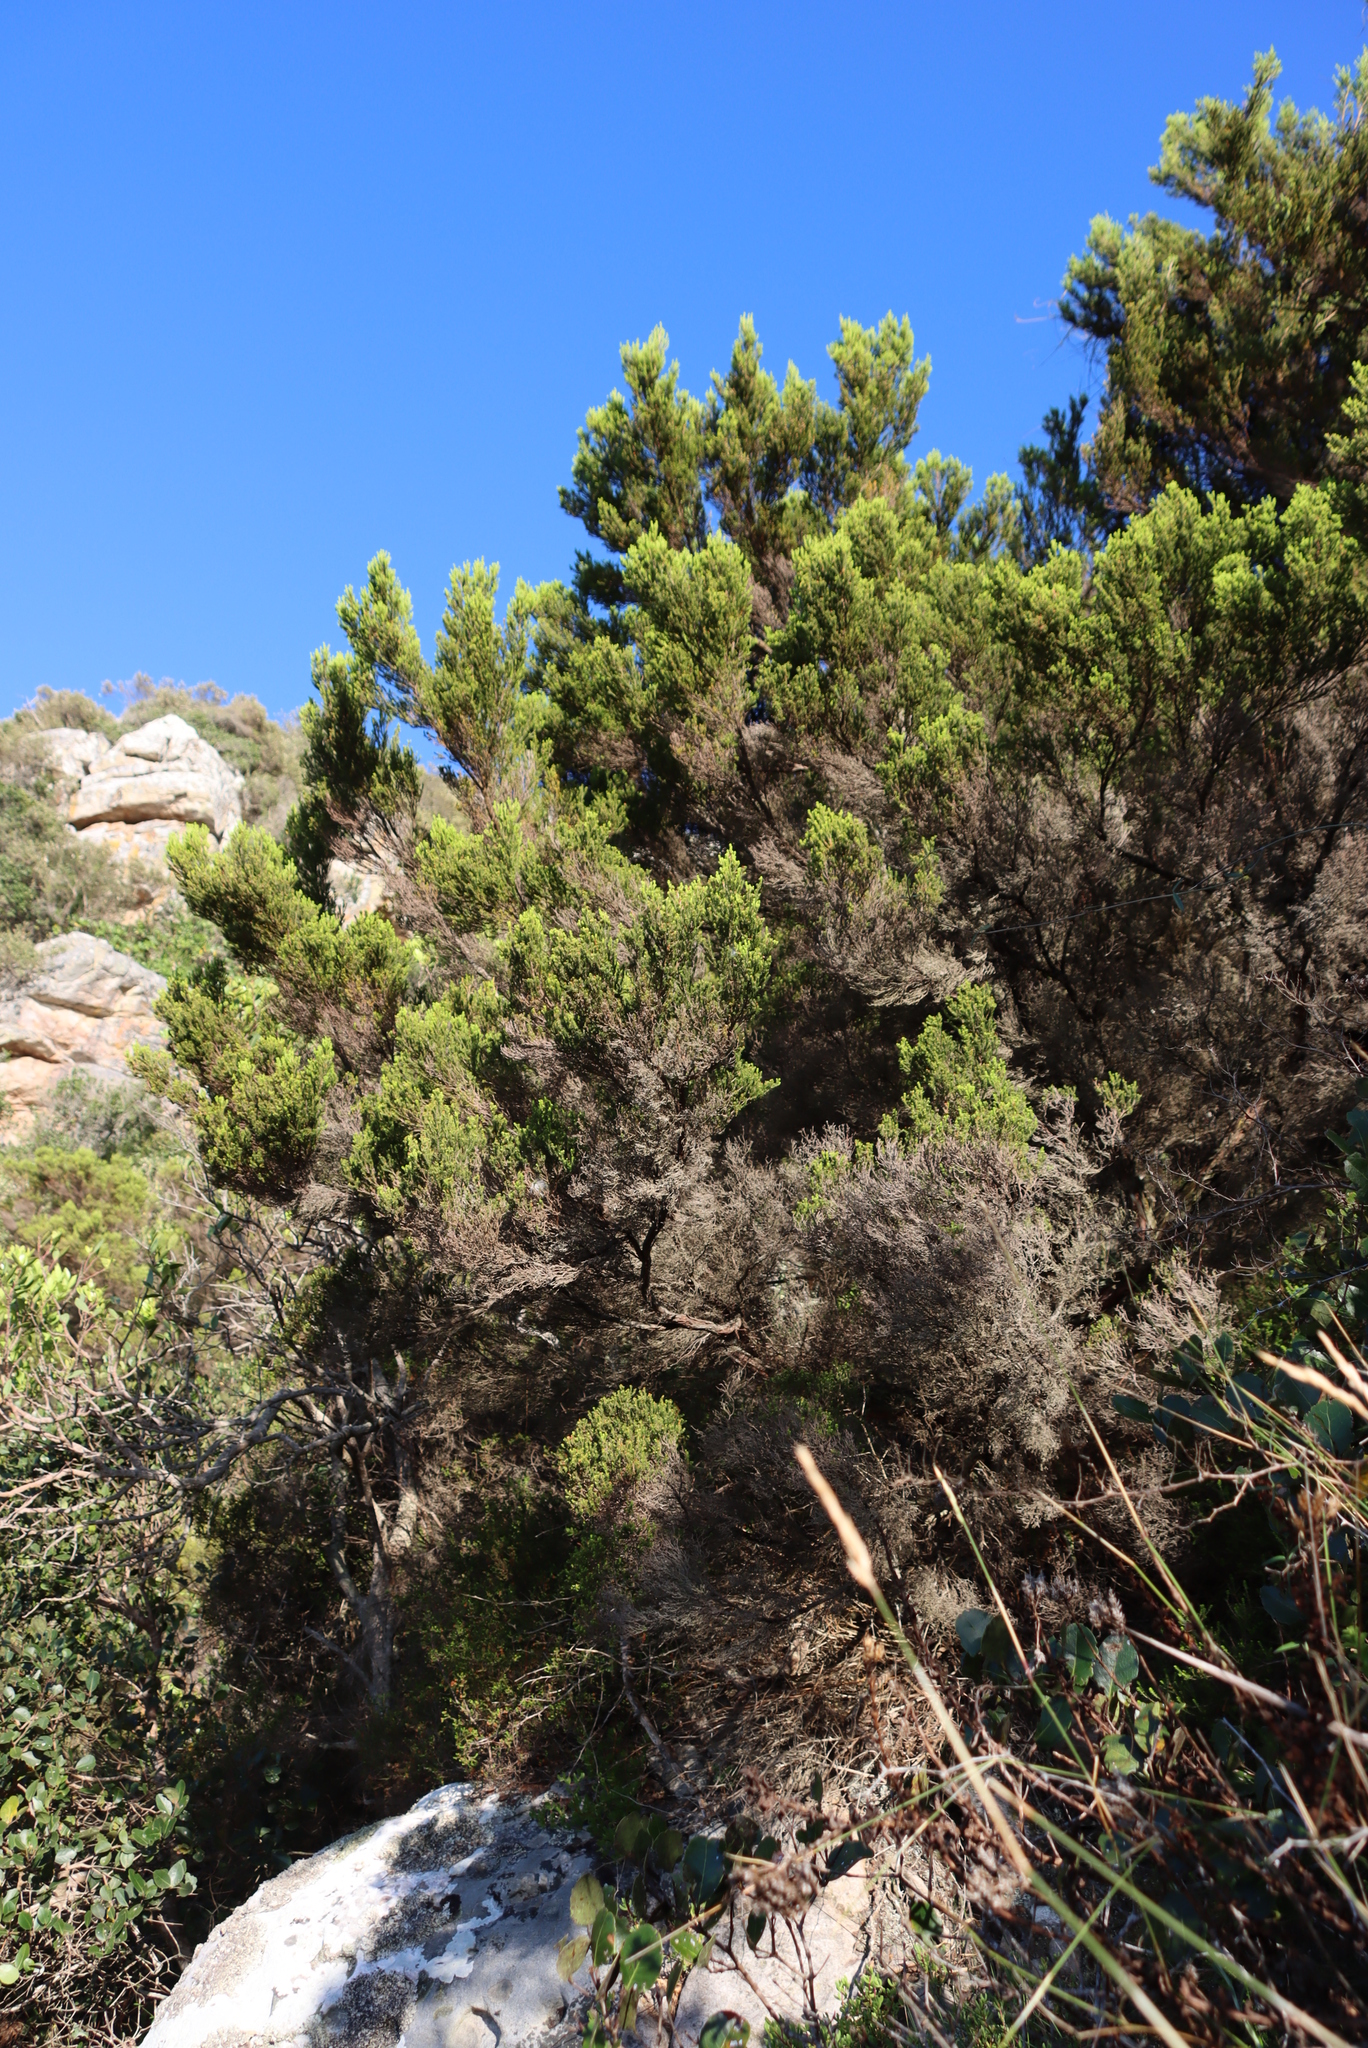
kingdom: Plantae
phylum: Tracheophyta
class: Magnoliopsida
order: Ericales
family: Ericaceae
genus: Erica
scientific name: Erica tristis
